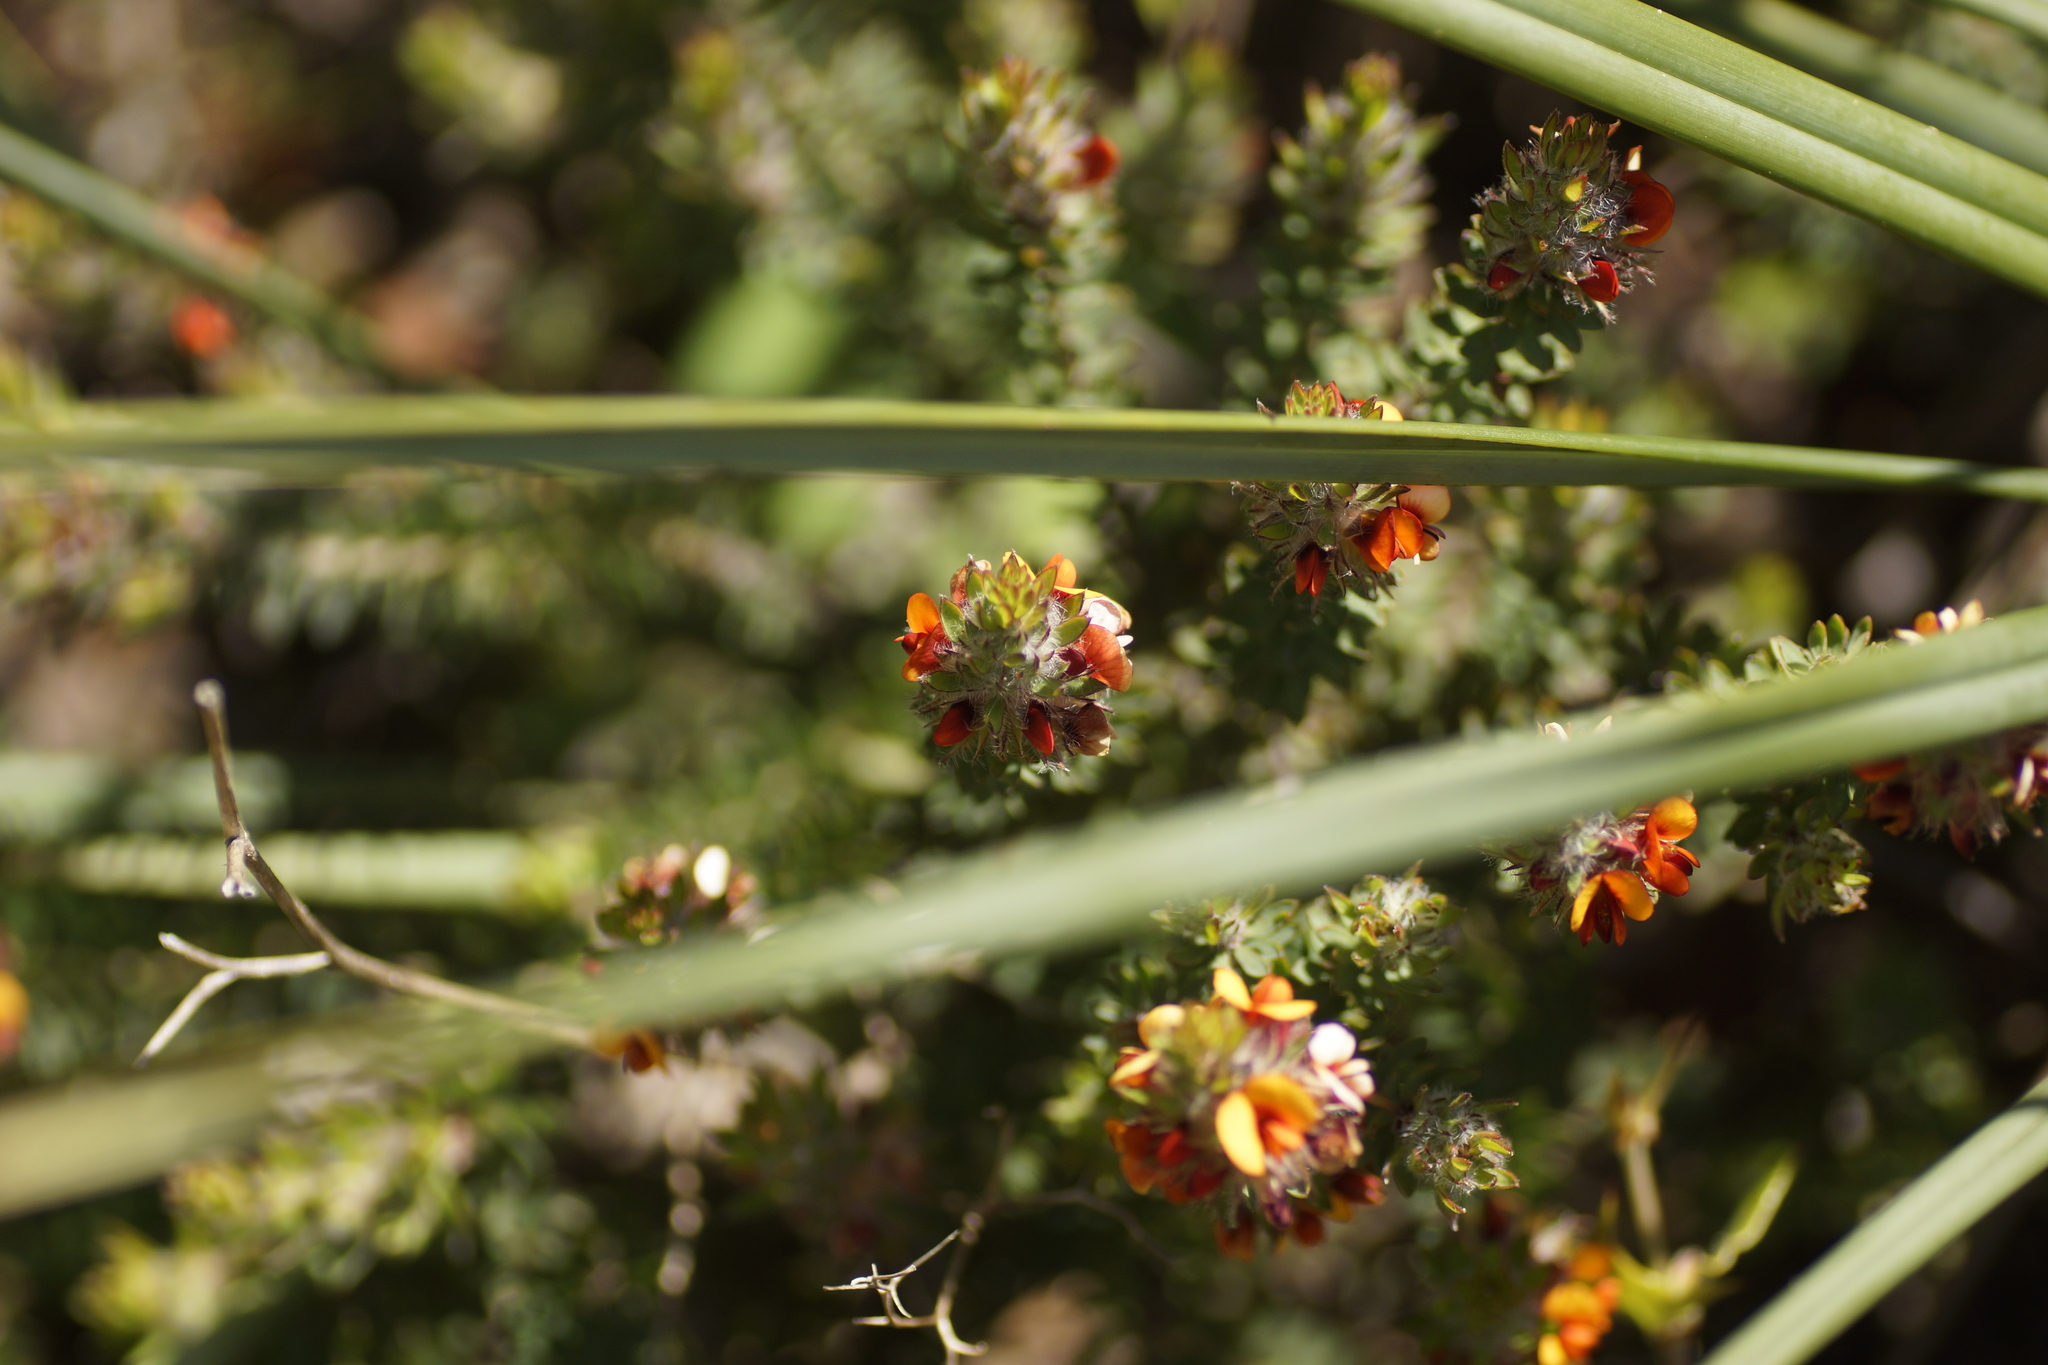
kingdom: Plantae
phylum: Tracheophyta
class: Magnoliopsida
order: Fabales
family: Fabaceae
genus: Pultenaea
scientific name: Pultenaea humilis
